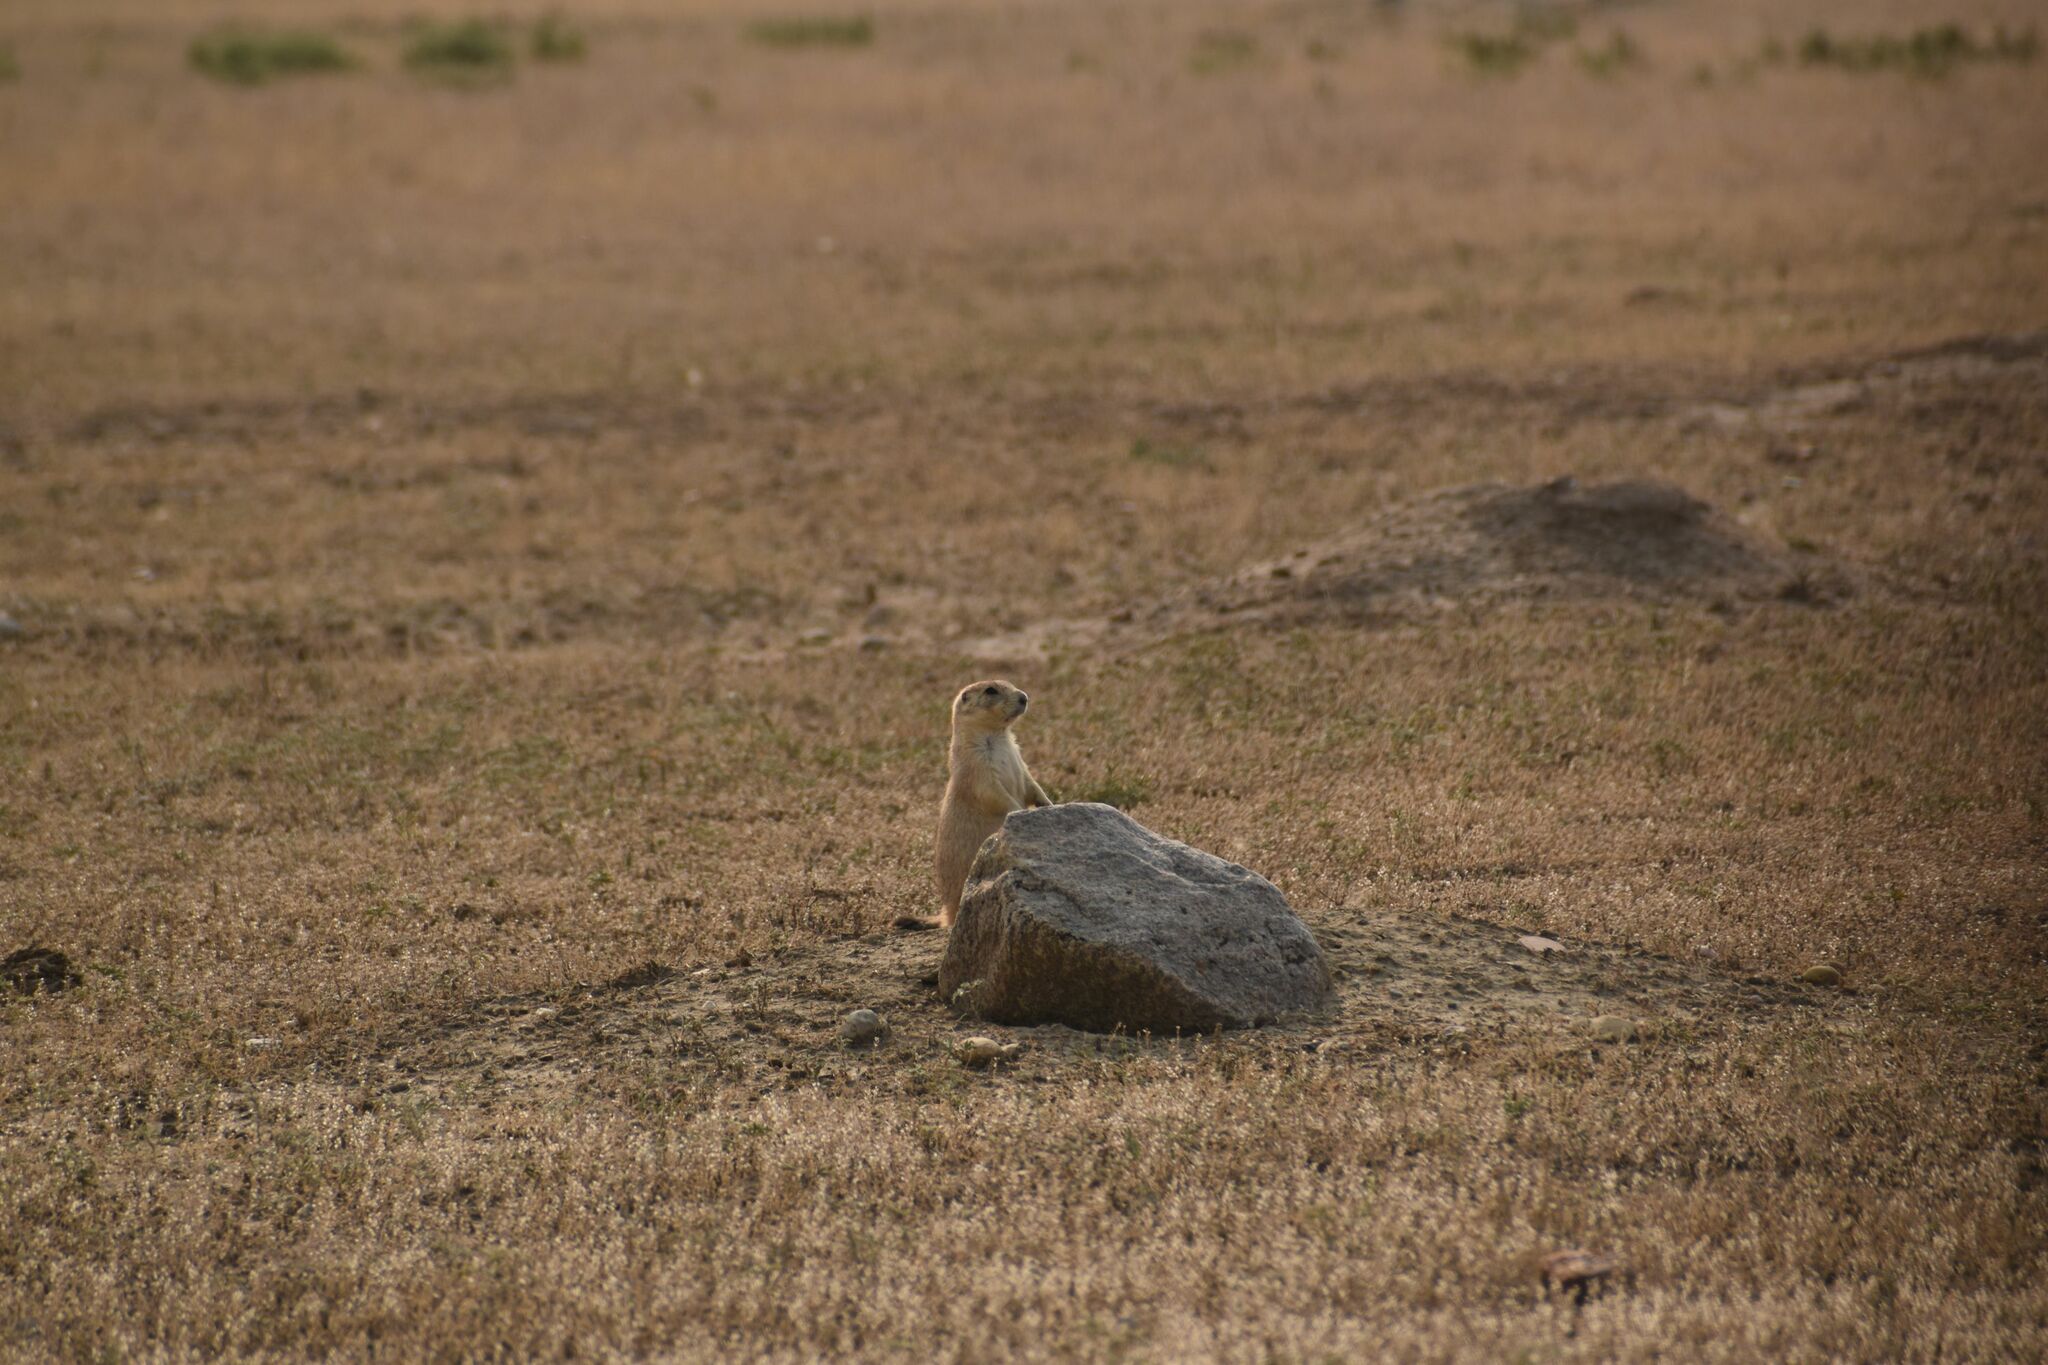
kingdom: Animalia
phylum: Chordata
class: Mammalia
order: Rodentia
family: Sciuridae
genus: Cynomys
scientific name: Cynomys ludovicianus
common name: Black-tailed prairie dog
